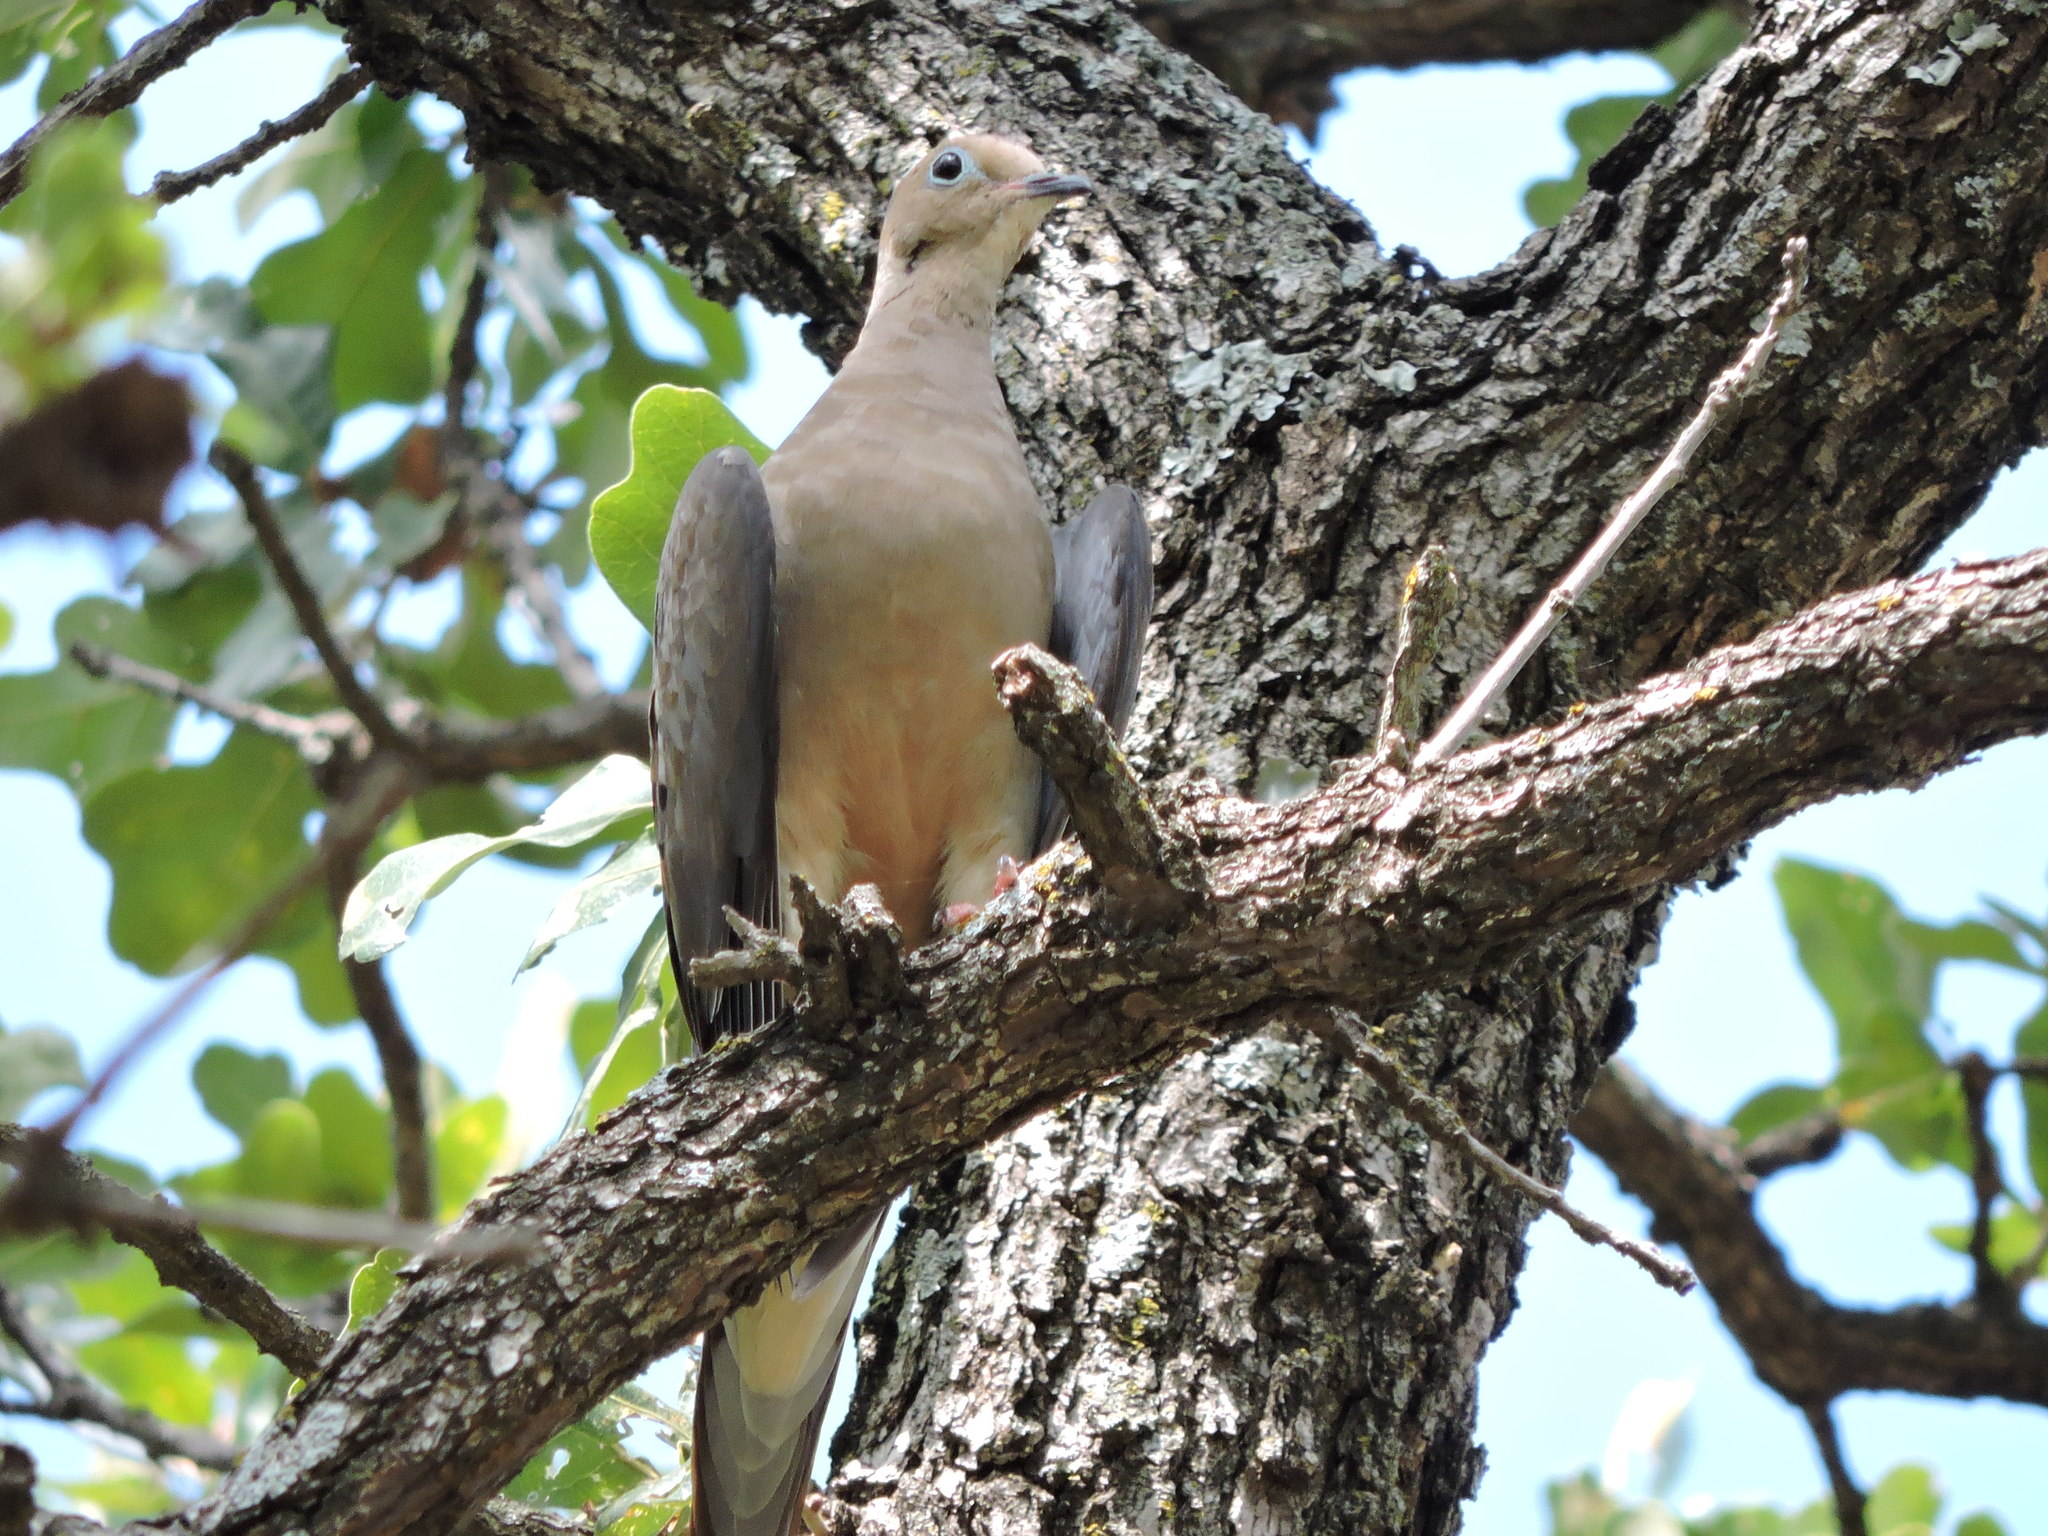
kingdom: Animalia
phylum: Chordata
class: Aves
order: Columbiformes
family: Columbidae
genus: Zenaida
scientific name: Zenaida macroura
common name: Mourning dove
